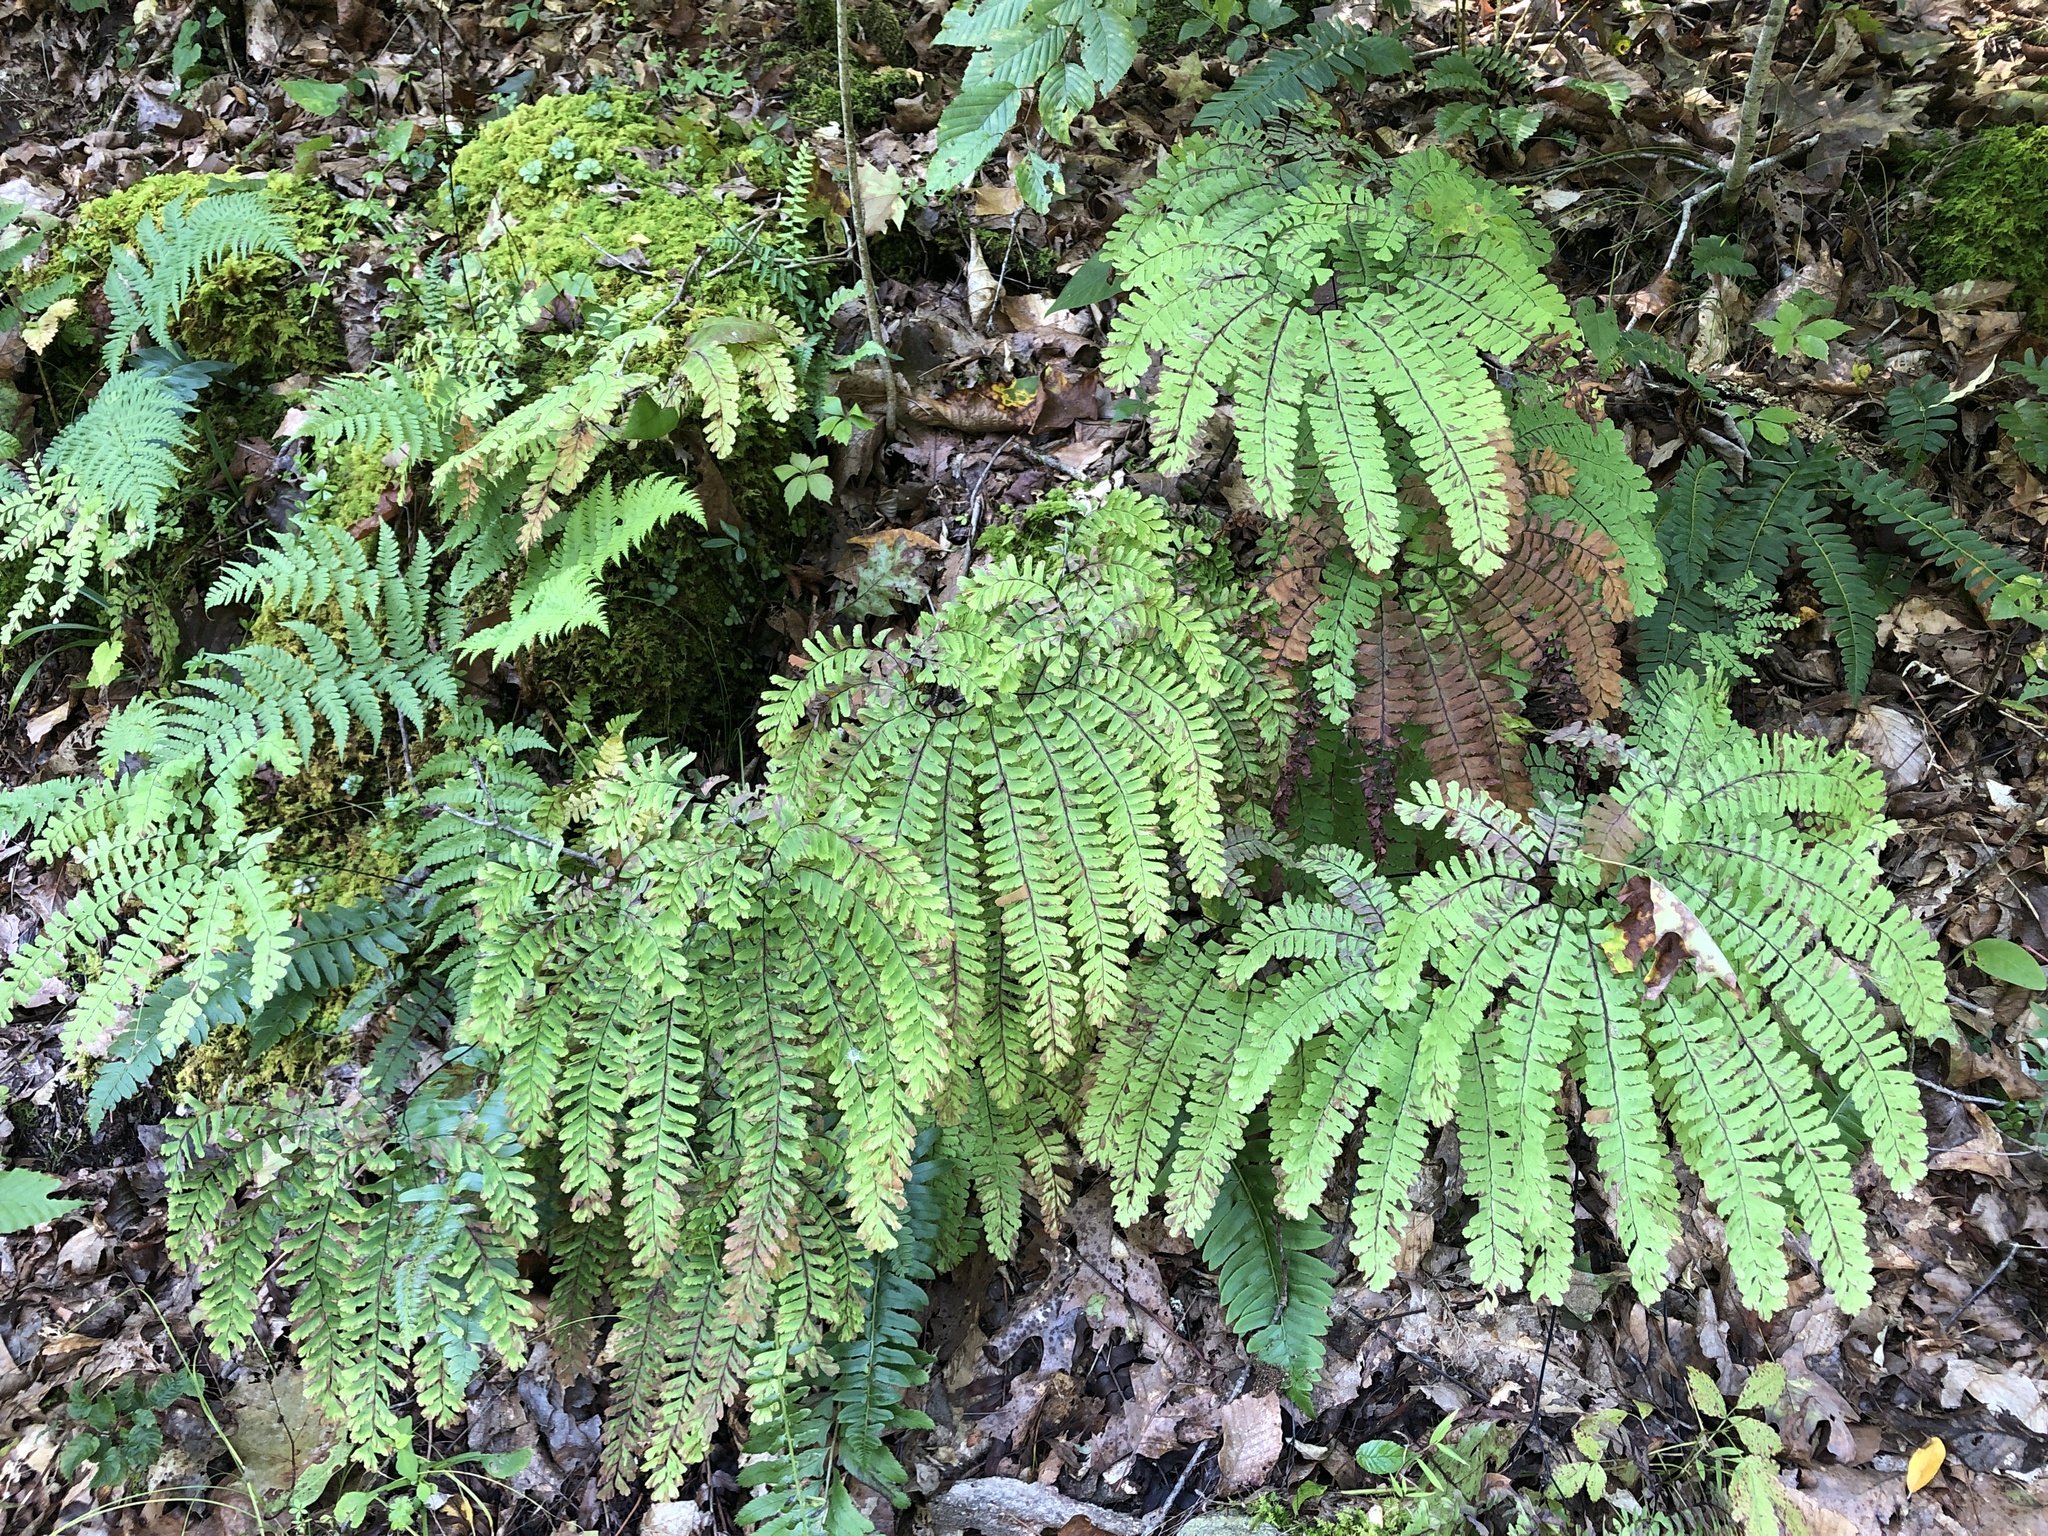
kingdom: Plantae
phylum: Tracheophyta
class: Polypodiopsida
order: Polypodiales
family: Pteridaceae
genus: Adiantum
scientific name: Adiantum pedatum
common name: Five-finger fern
